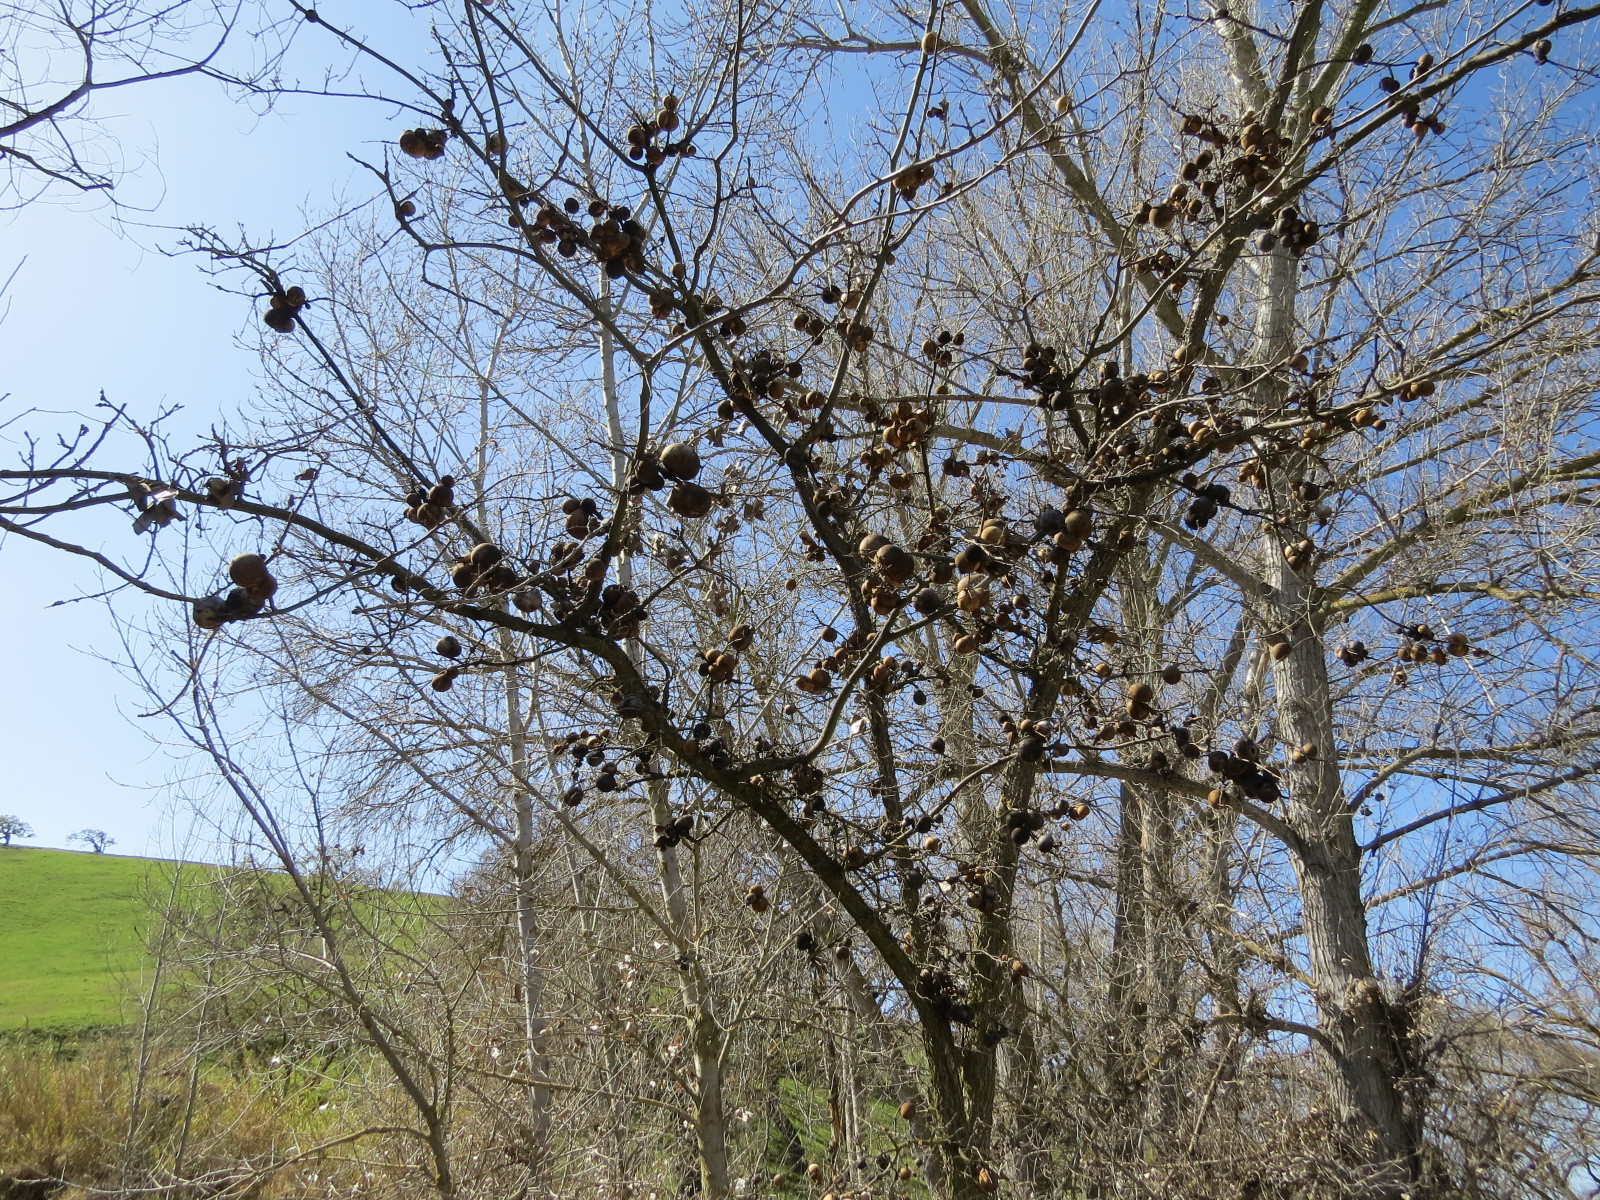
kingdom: Animalia
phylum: Arthropoda
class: Insecta
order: Hymenoptera
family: Cynipidae
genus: Andricus
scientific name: Andricus quercuscalifornicus
